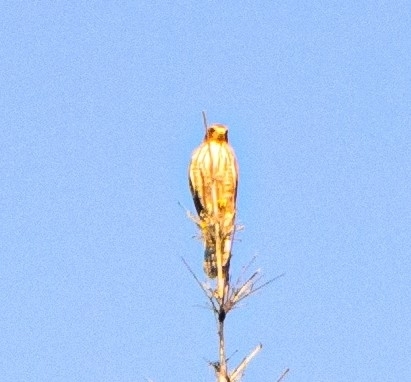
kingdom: Animalia
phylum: Chordata
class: Aves
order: Accipitriformes
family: Accipitridae
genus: Rupornis
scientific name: Rupornis magnirostris
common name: Roadside hawk
